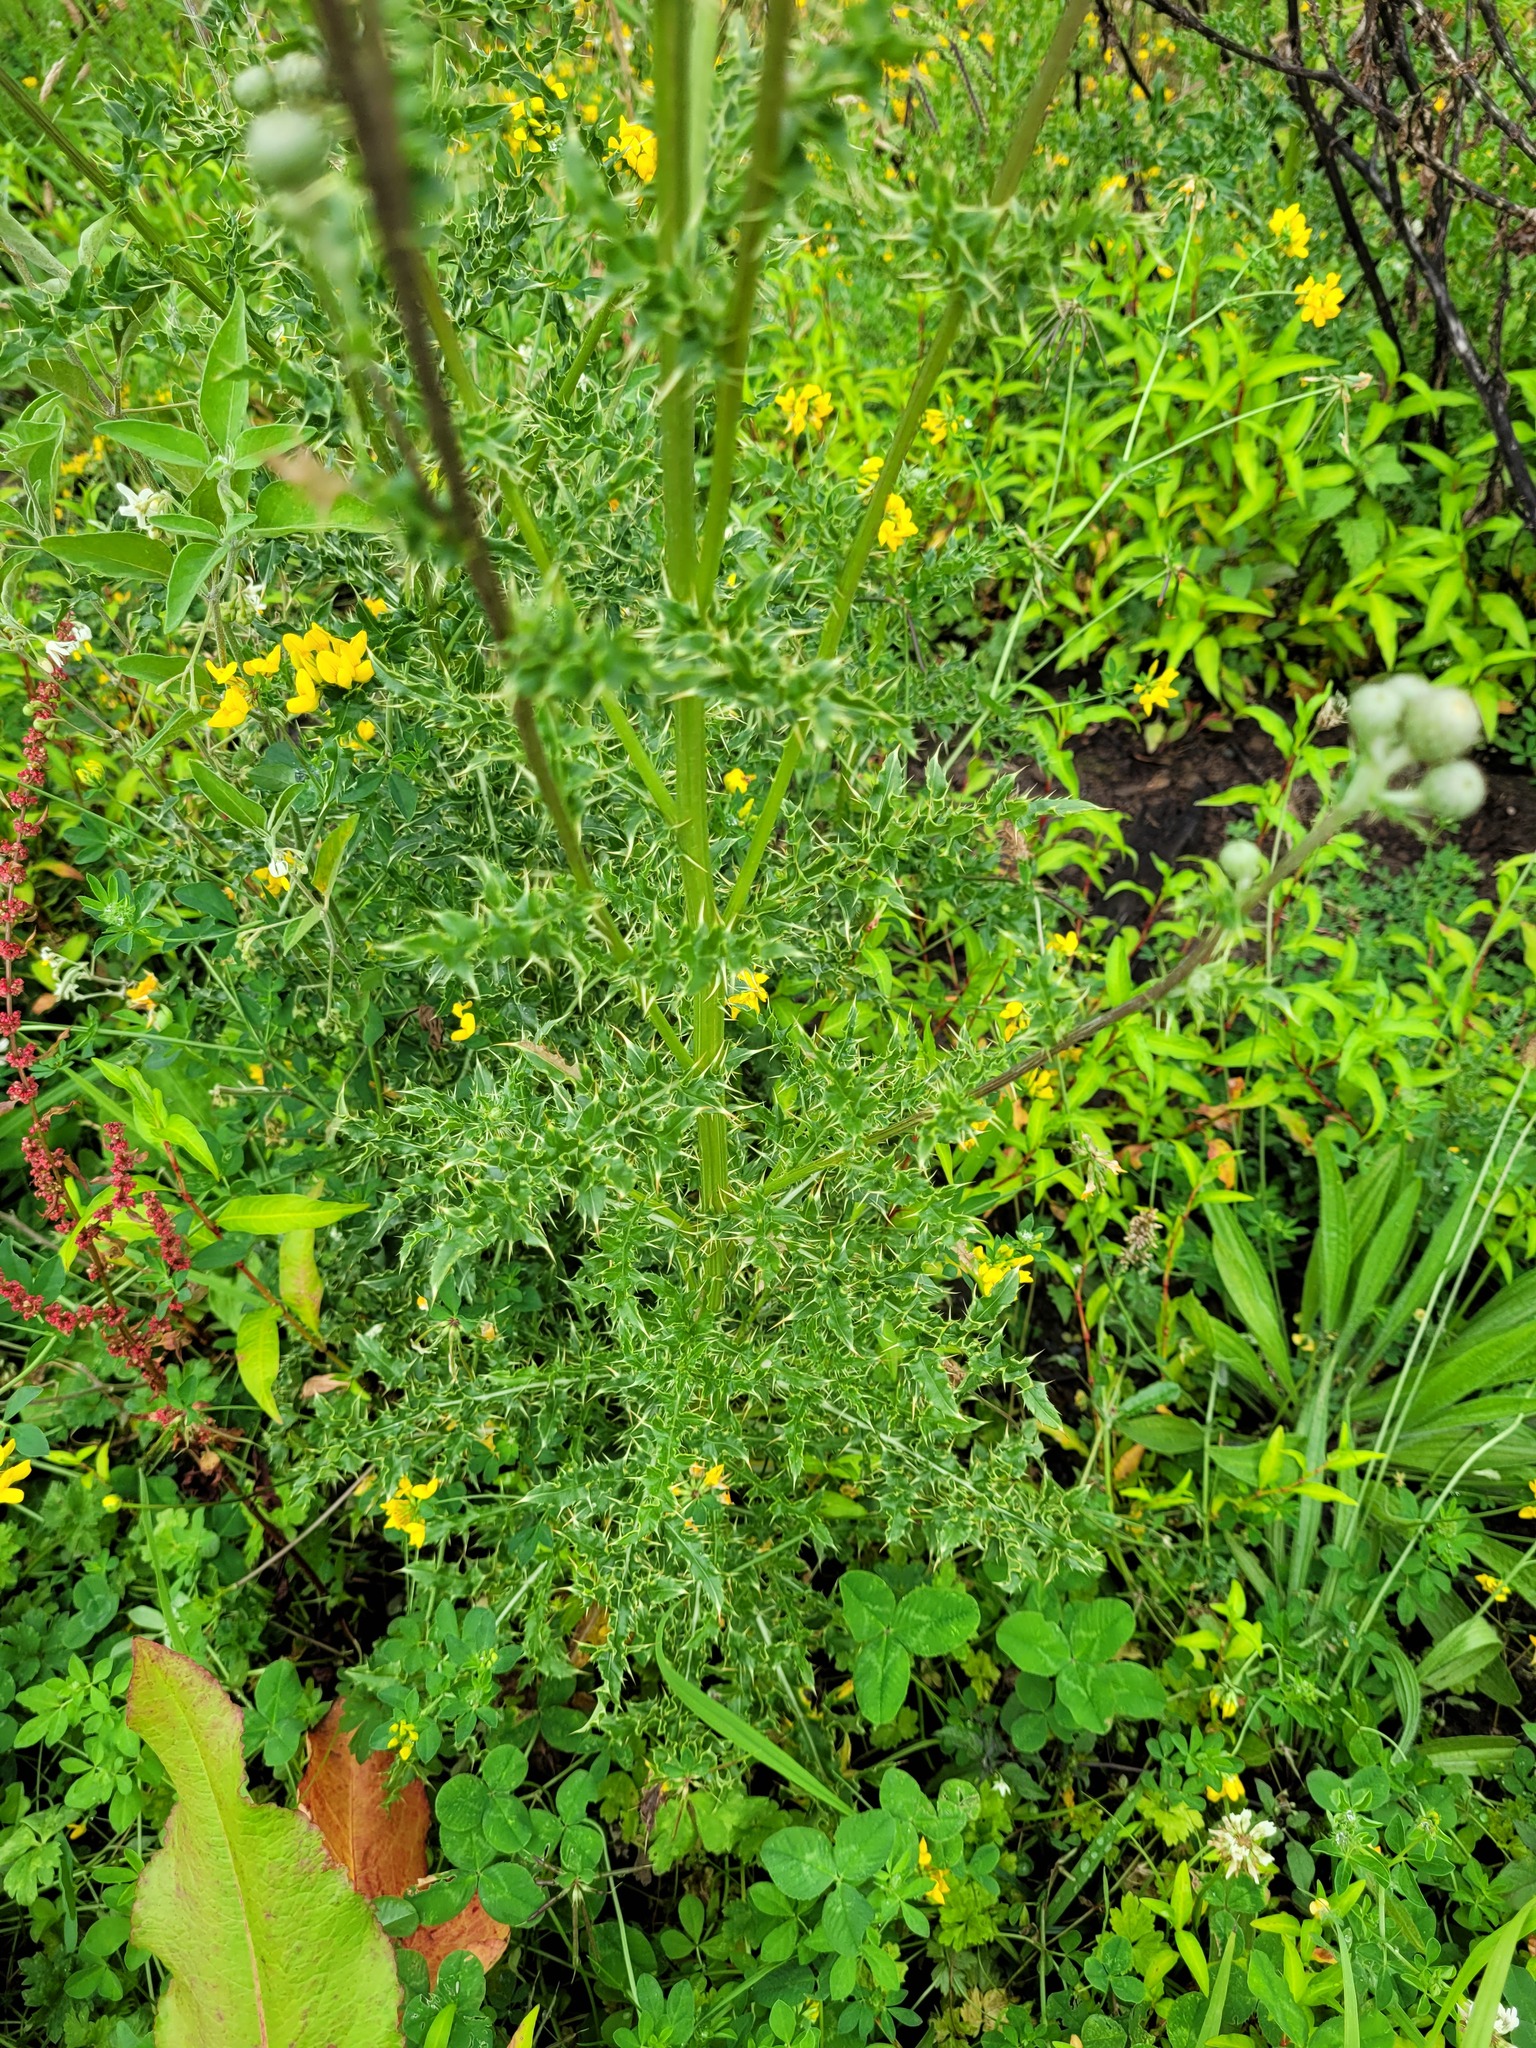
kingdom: Plantae
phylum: Tracheophyta
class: Magnoliopsida
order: Asterales
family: Asteraceae
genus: Cirsium
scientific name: Cirsium arvense
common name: Creeping thistle
